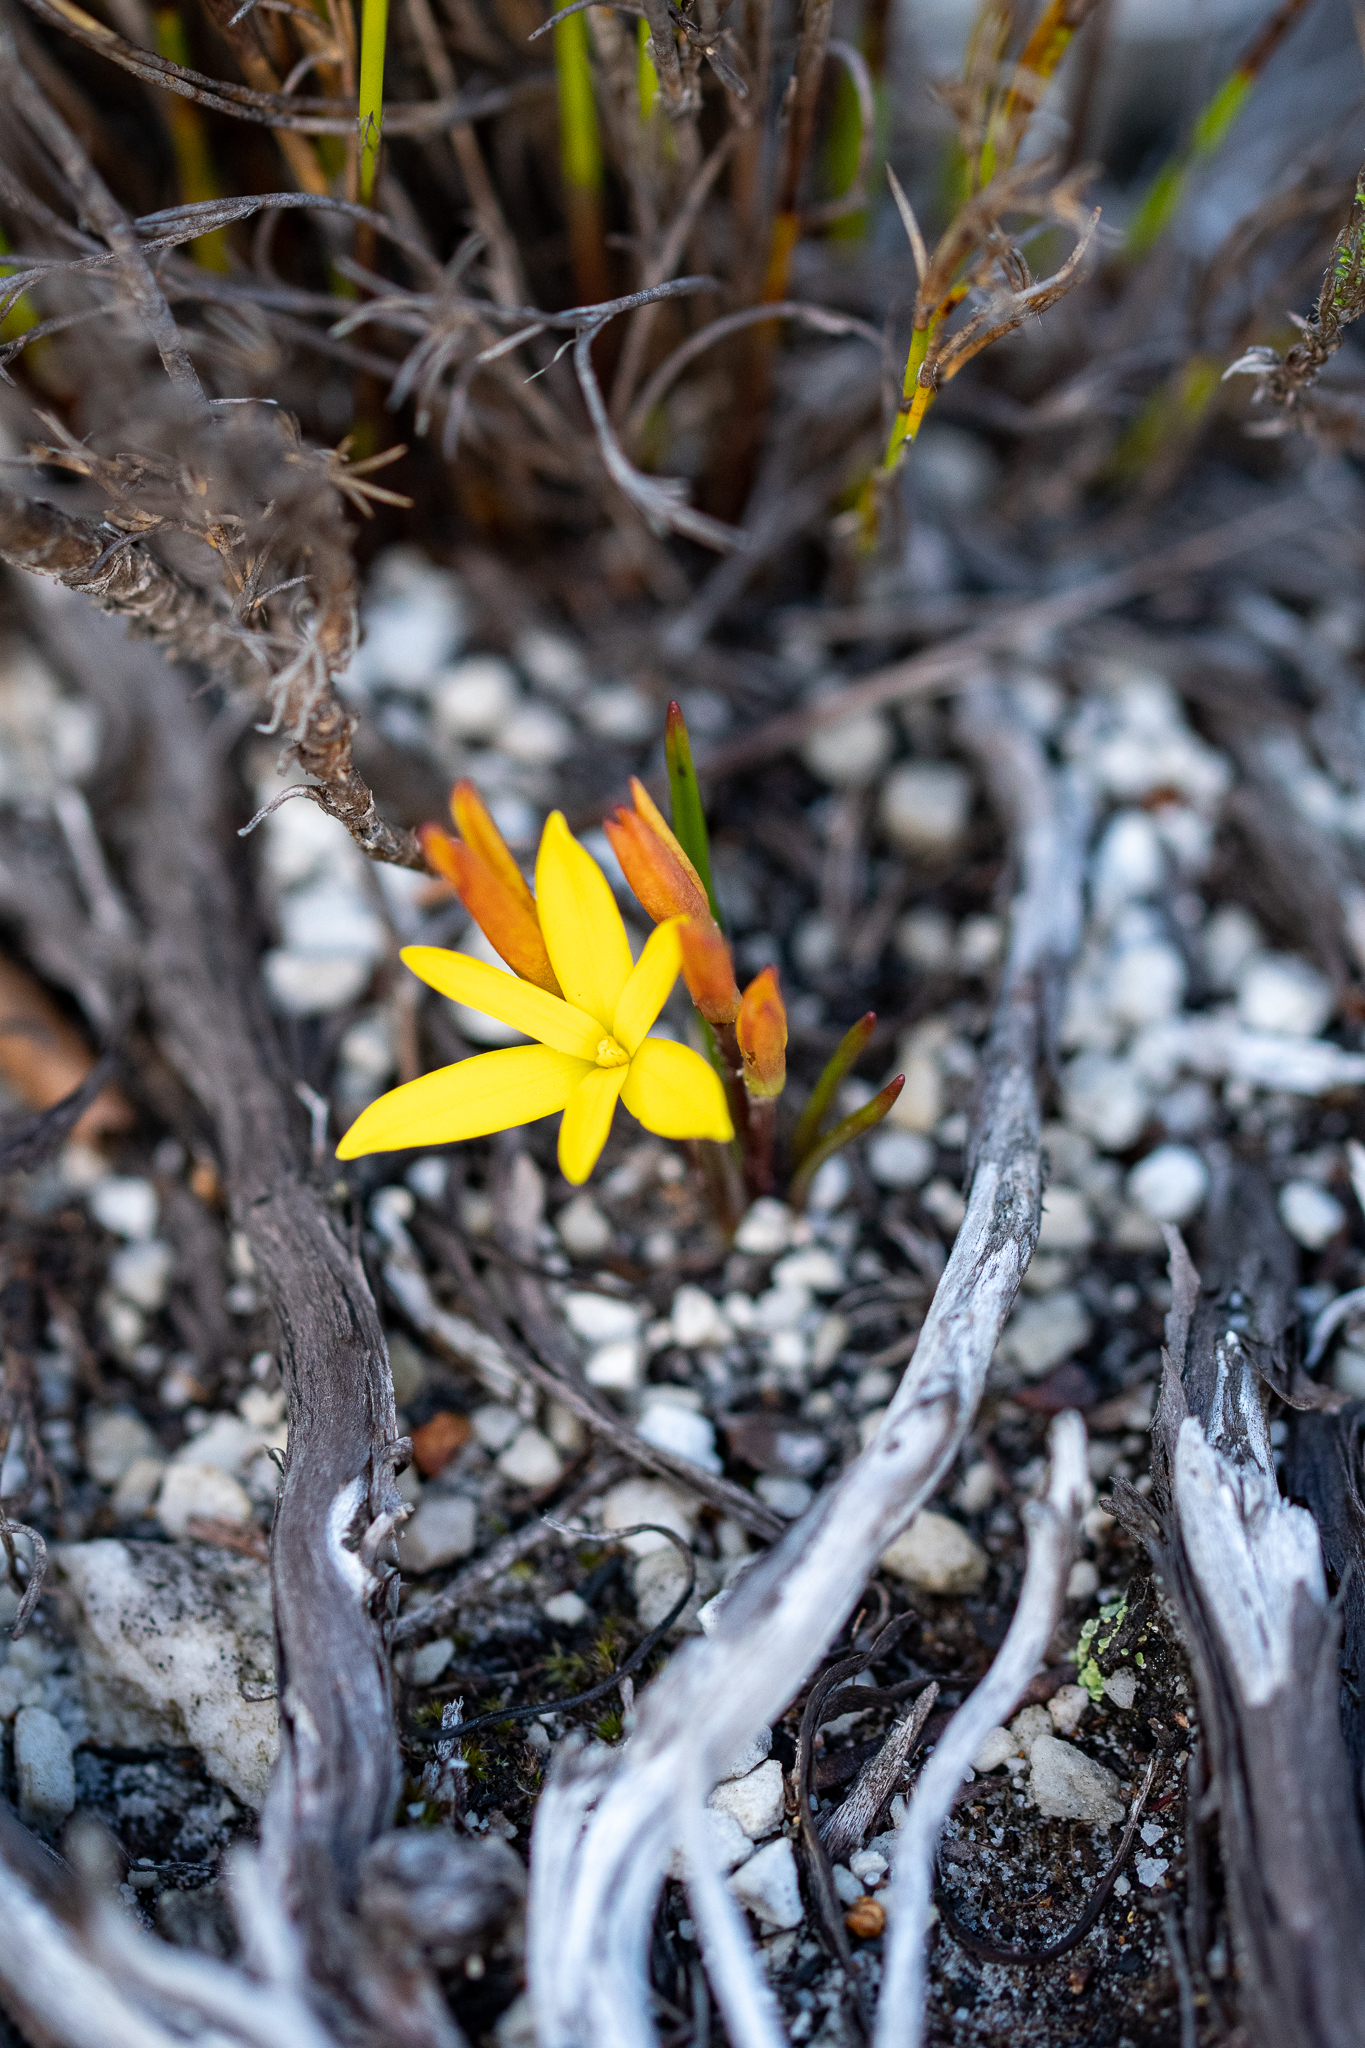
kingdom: Plantae
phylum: Tracheophyta
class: Liliopsida
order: Asparagales
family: Hypoxidaceae
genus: Pauridia
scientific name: Pauridia monophylla
